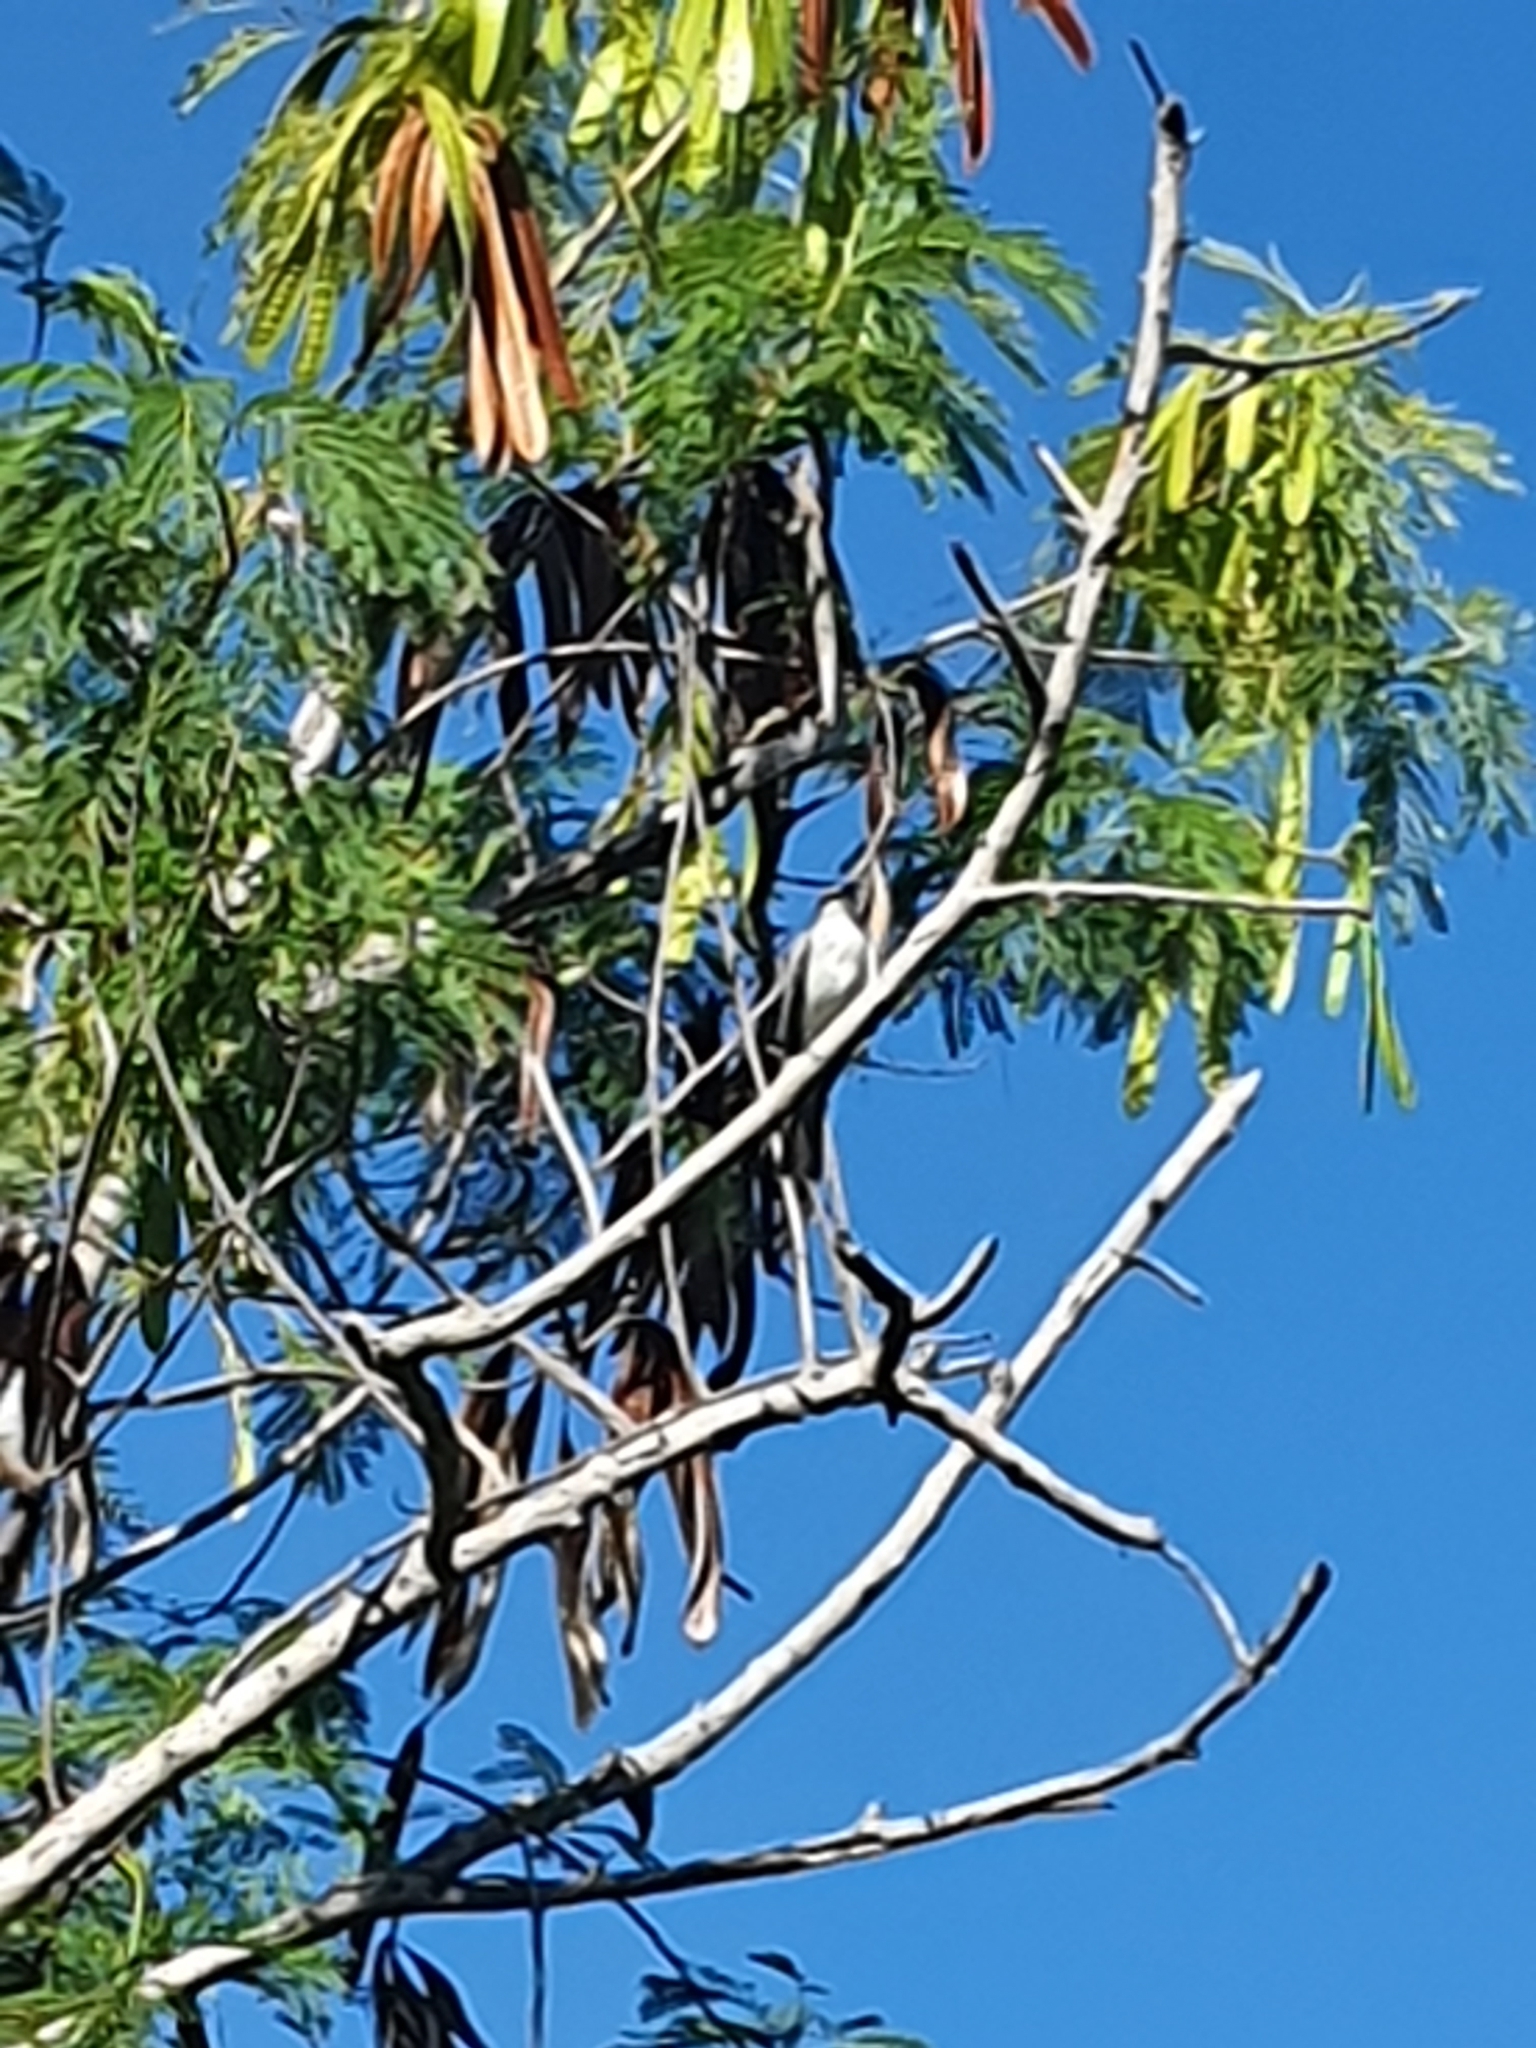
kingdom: Animalia
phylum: Chordata
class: Aves
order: Passeriformes
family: Tyrannidae
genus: Tyrannus
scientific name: Tyrannus dominicensis
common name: Gray kingbird
